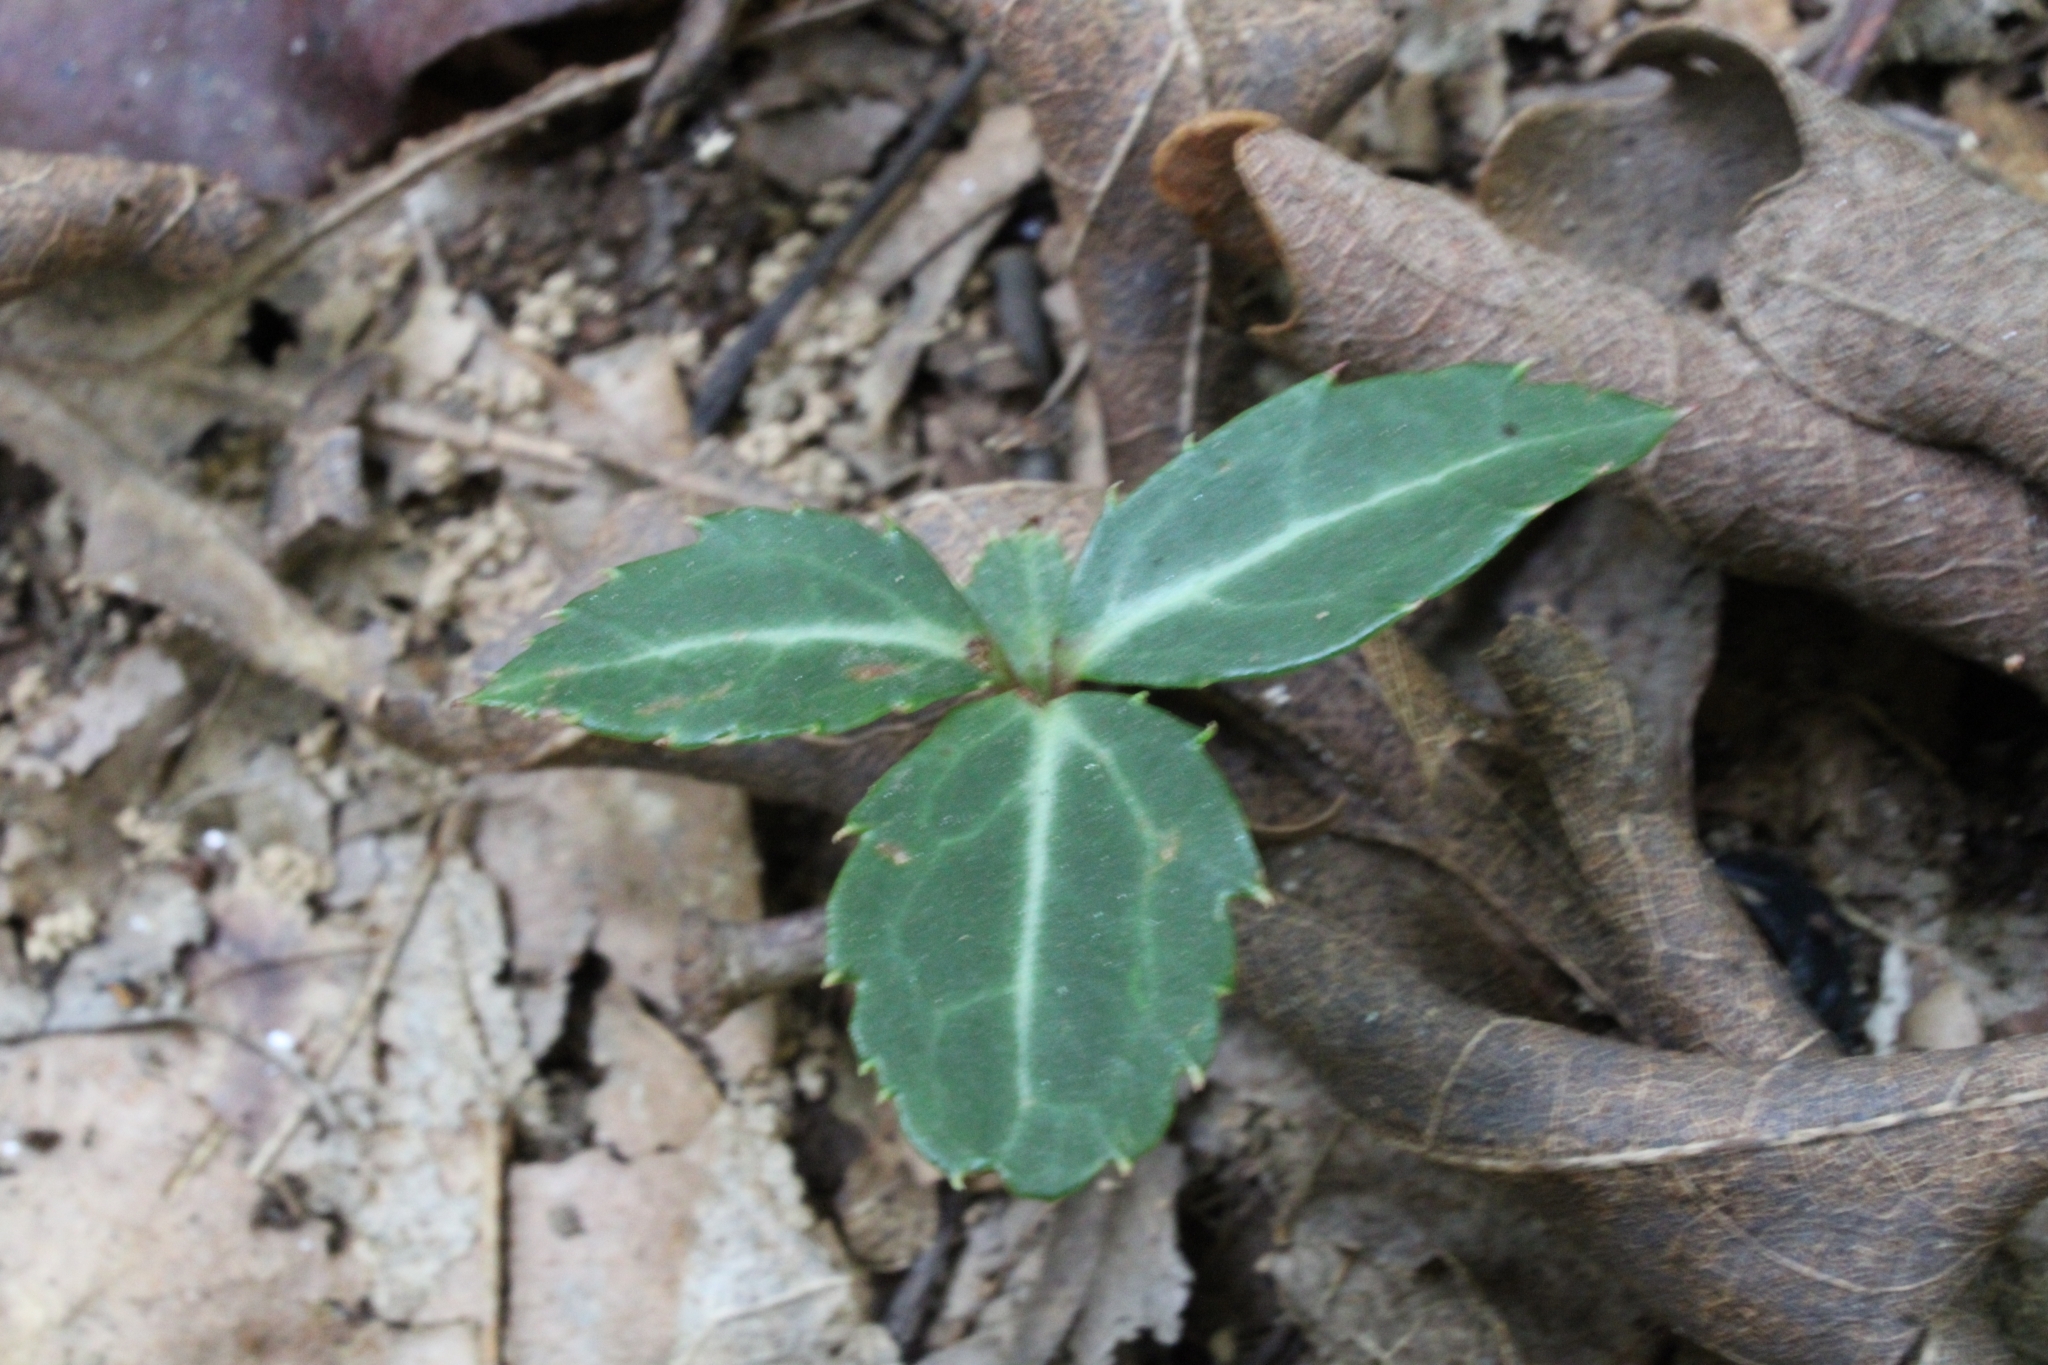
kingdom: Plantae
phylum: Tracheophyta
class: Magnoliopsida
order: Ericales
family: Ericaceae
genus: Chimaphila
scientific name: Chimaphila maculata
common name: Spotted pipsissewa
